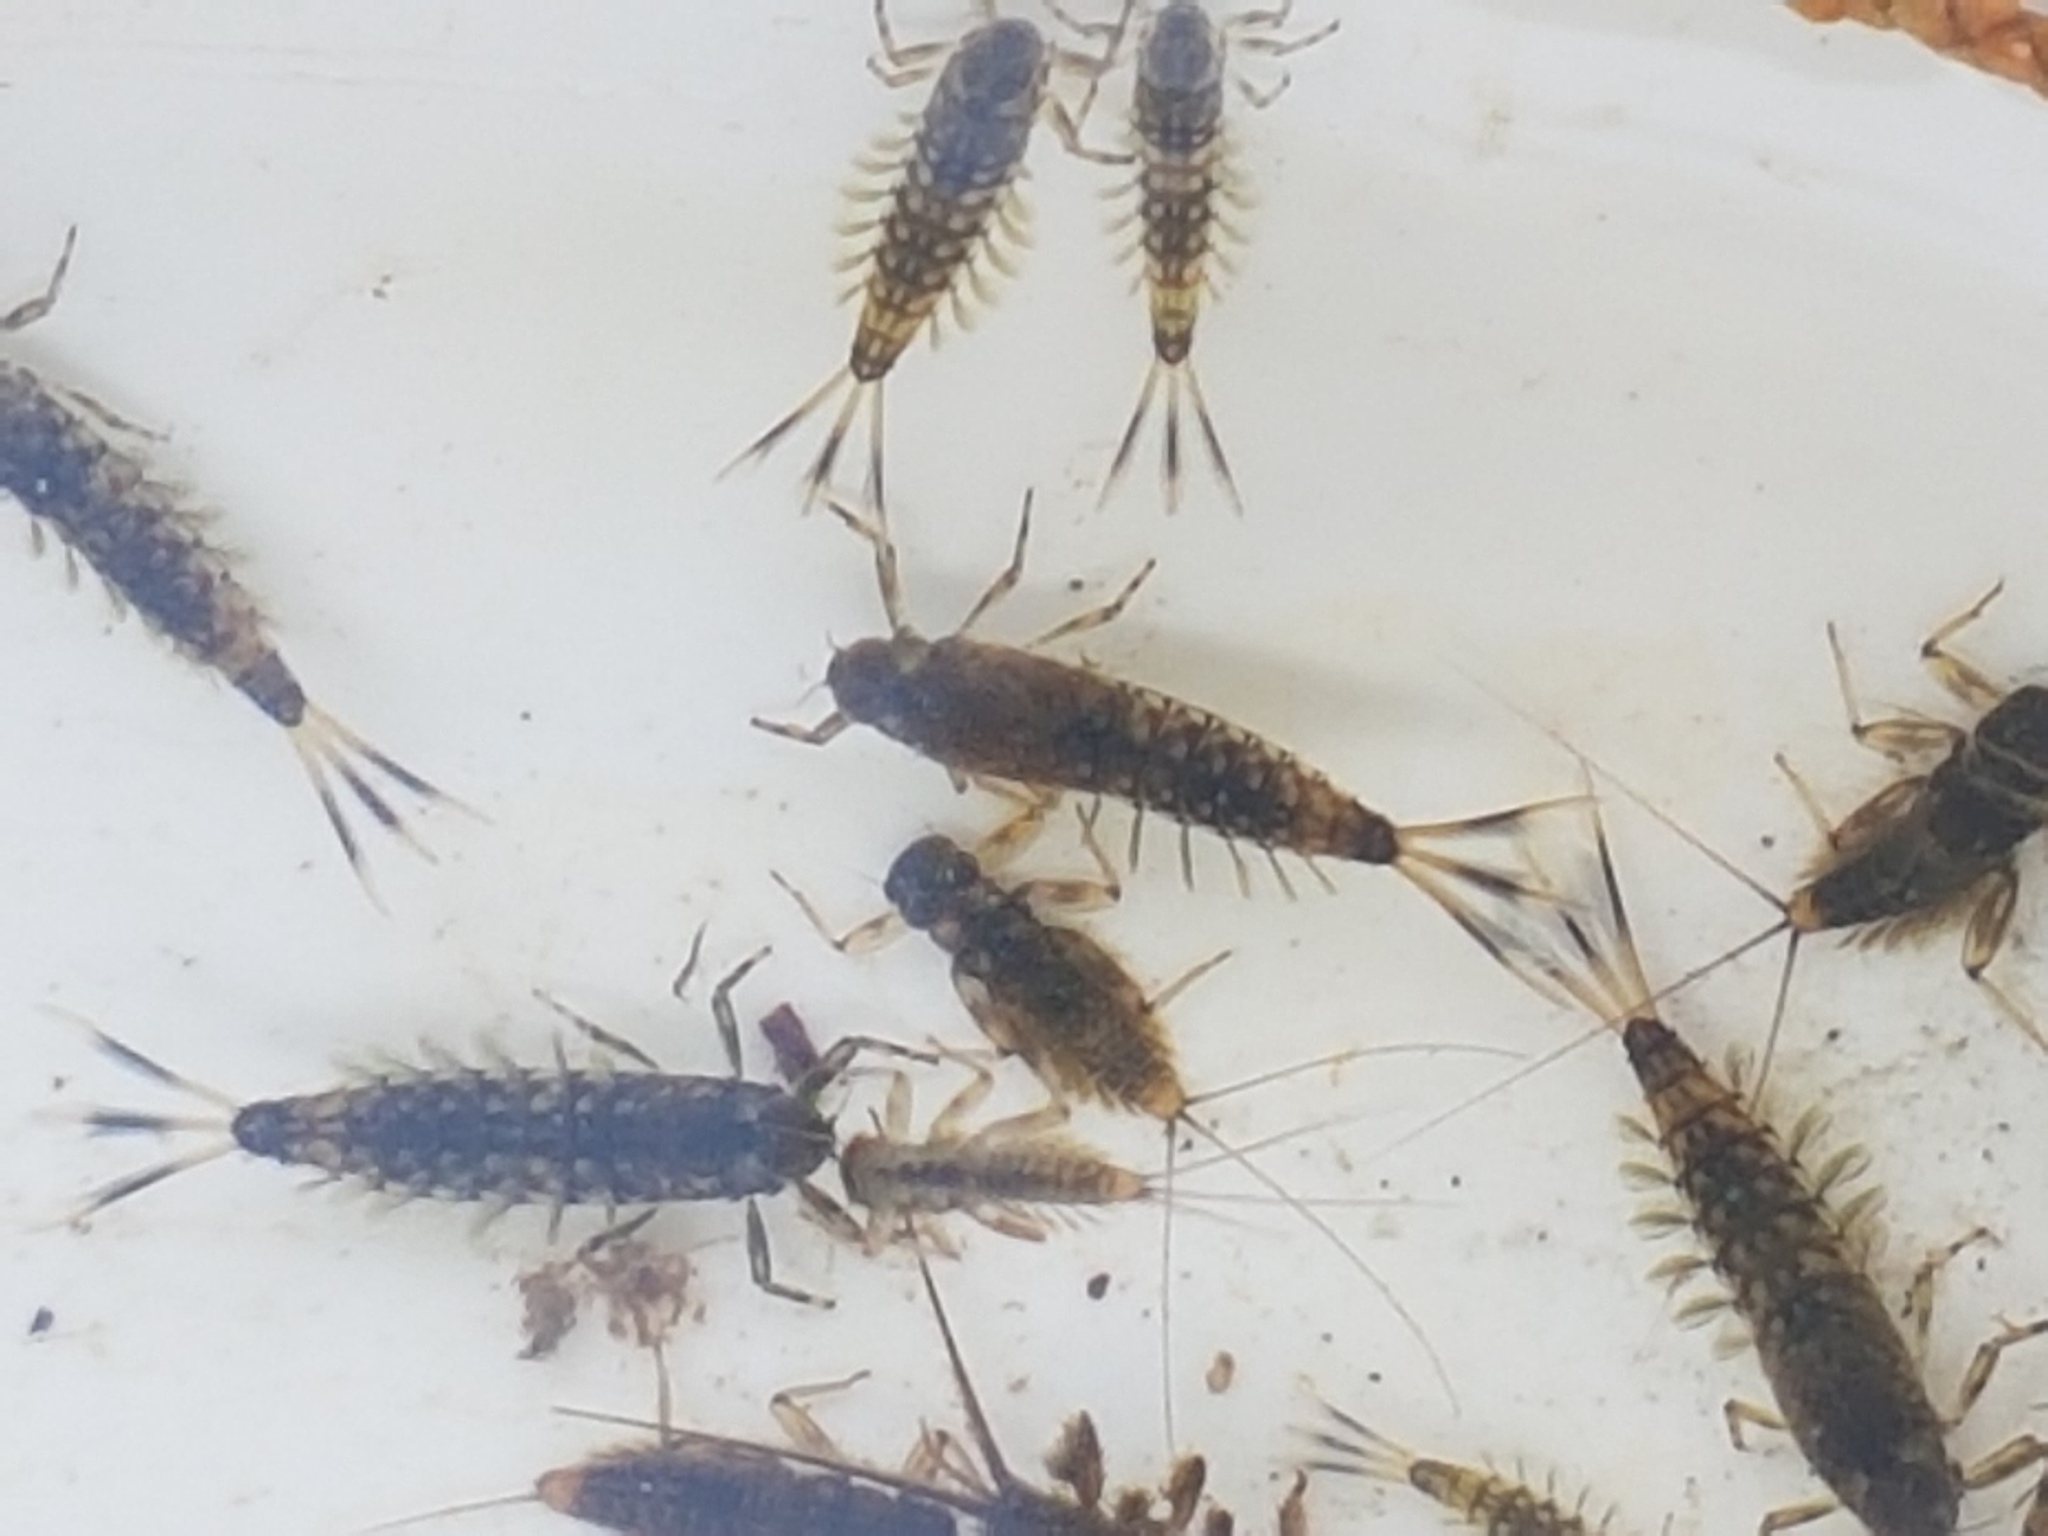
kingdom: Animalia
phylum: Arthropoda
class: Insecta
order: Ephemeroptera
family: Nesameletidae
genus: Nesameletus
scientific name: Nesameletus ornatus
